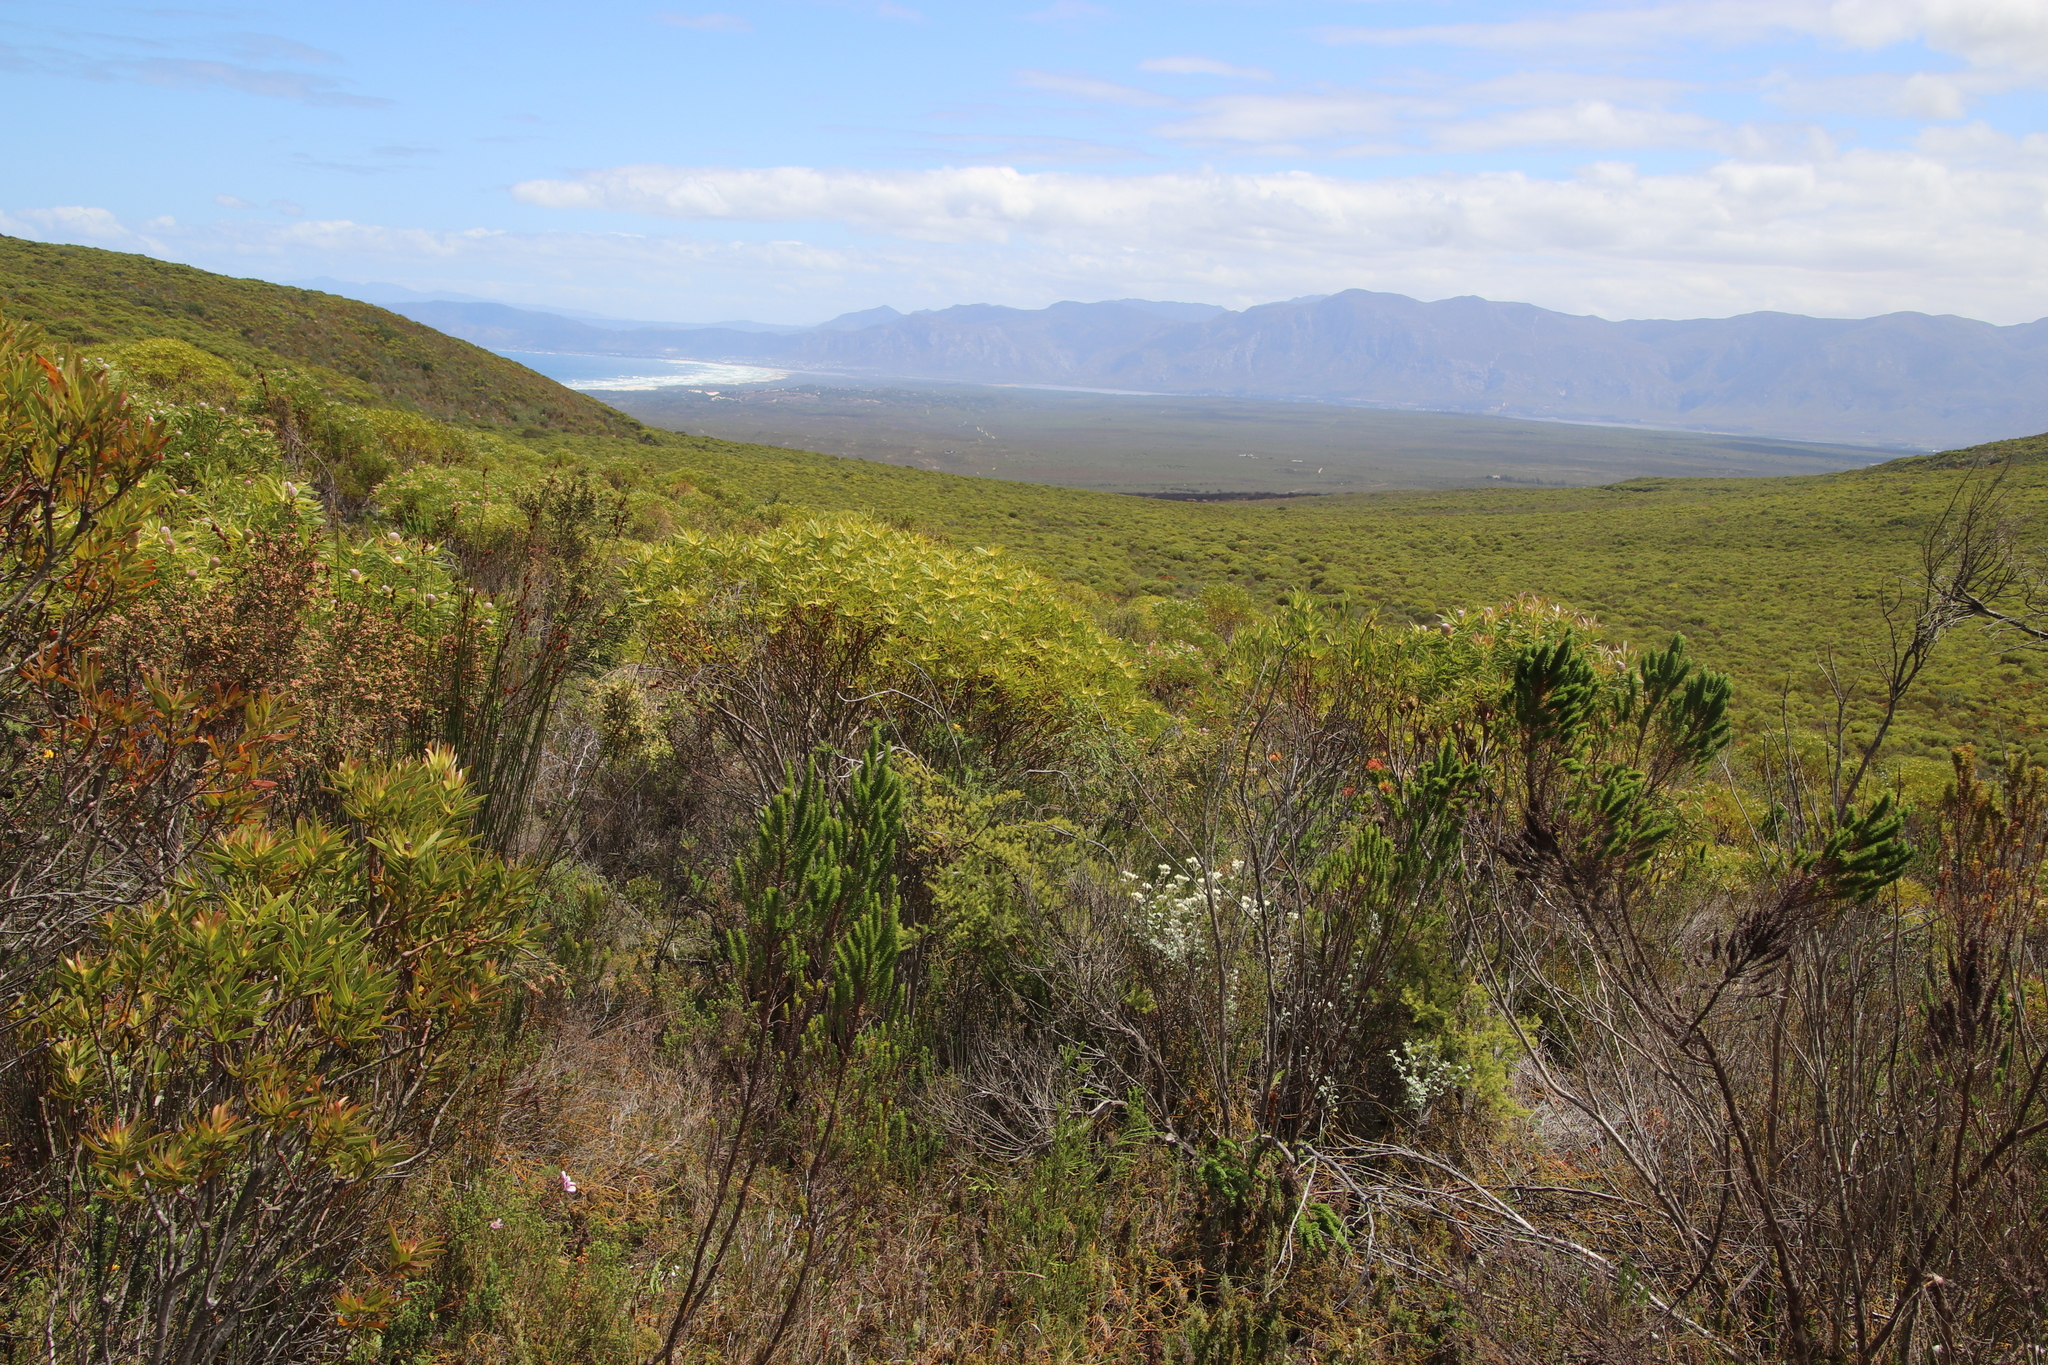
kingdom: Plantae
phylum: Tracheophyta
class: Magnoliopsida
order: Proteales
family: Proteaceae
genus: Leucadendron
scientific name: Leucadendron coniferum
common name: Dune conebush
